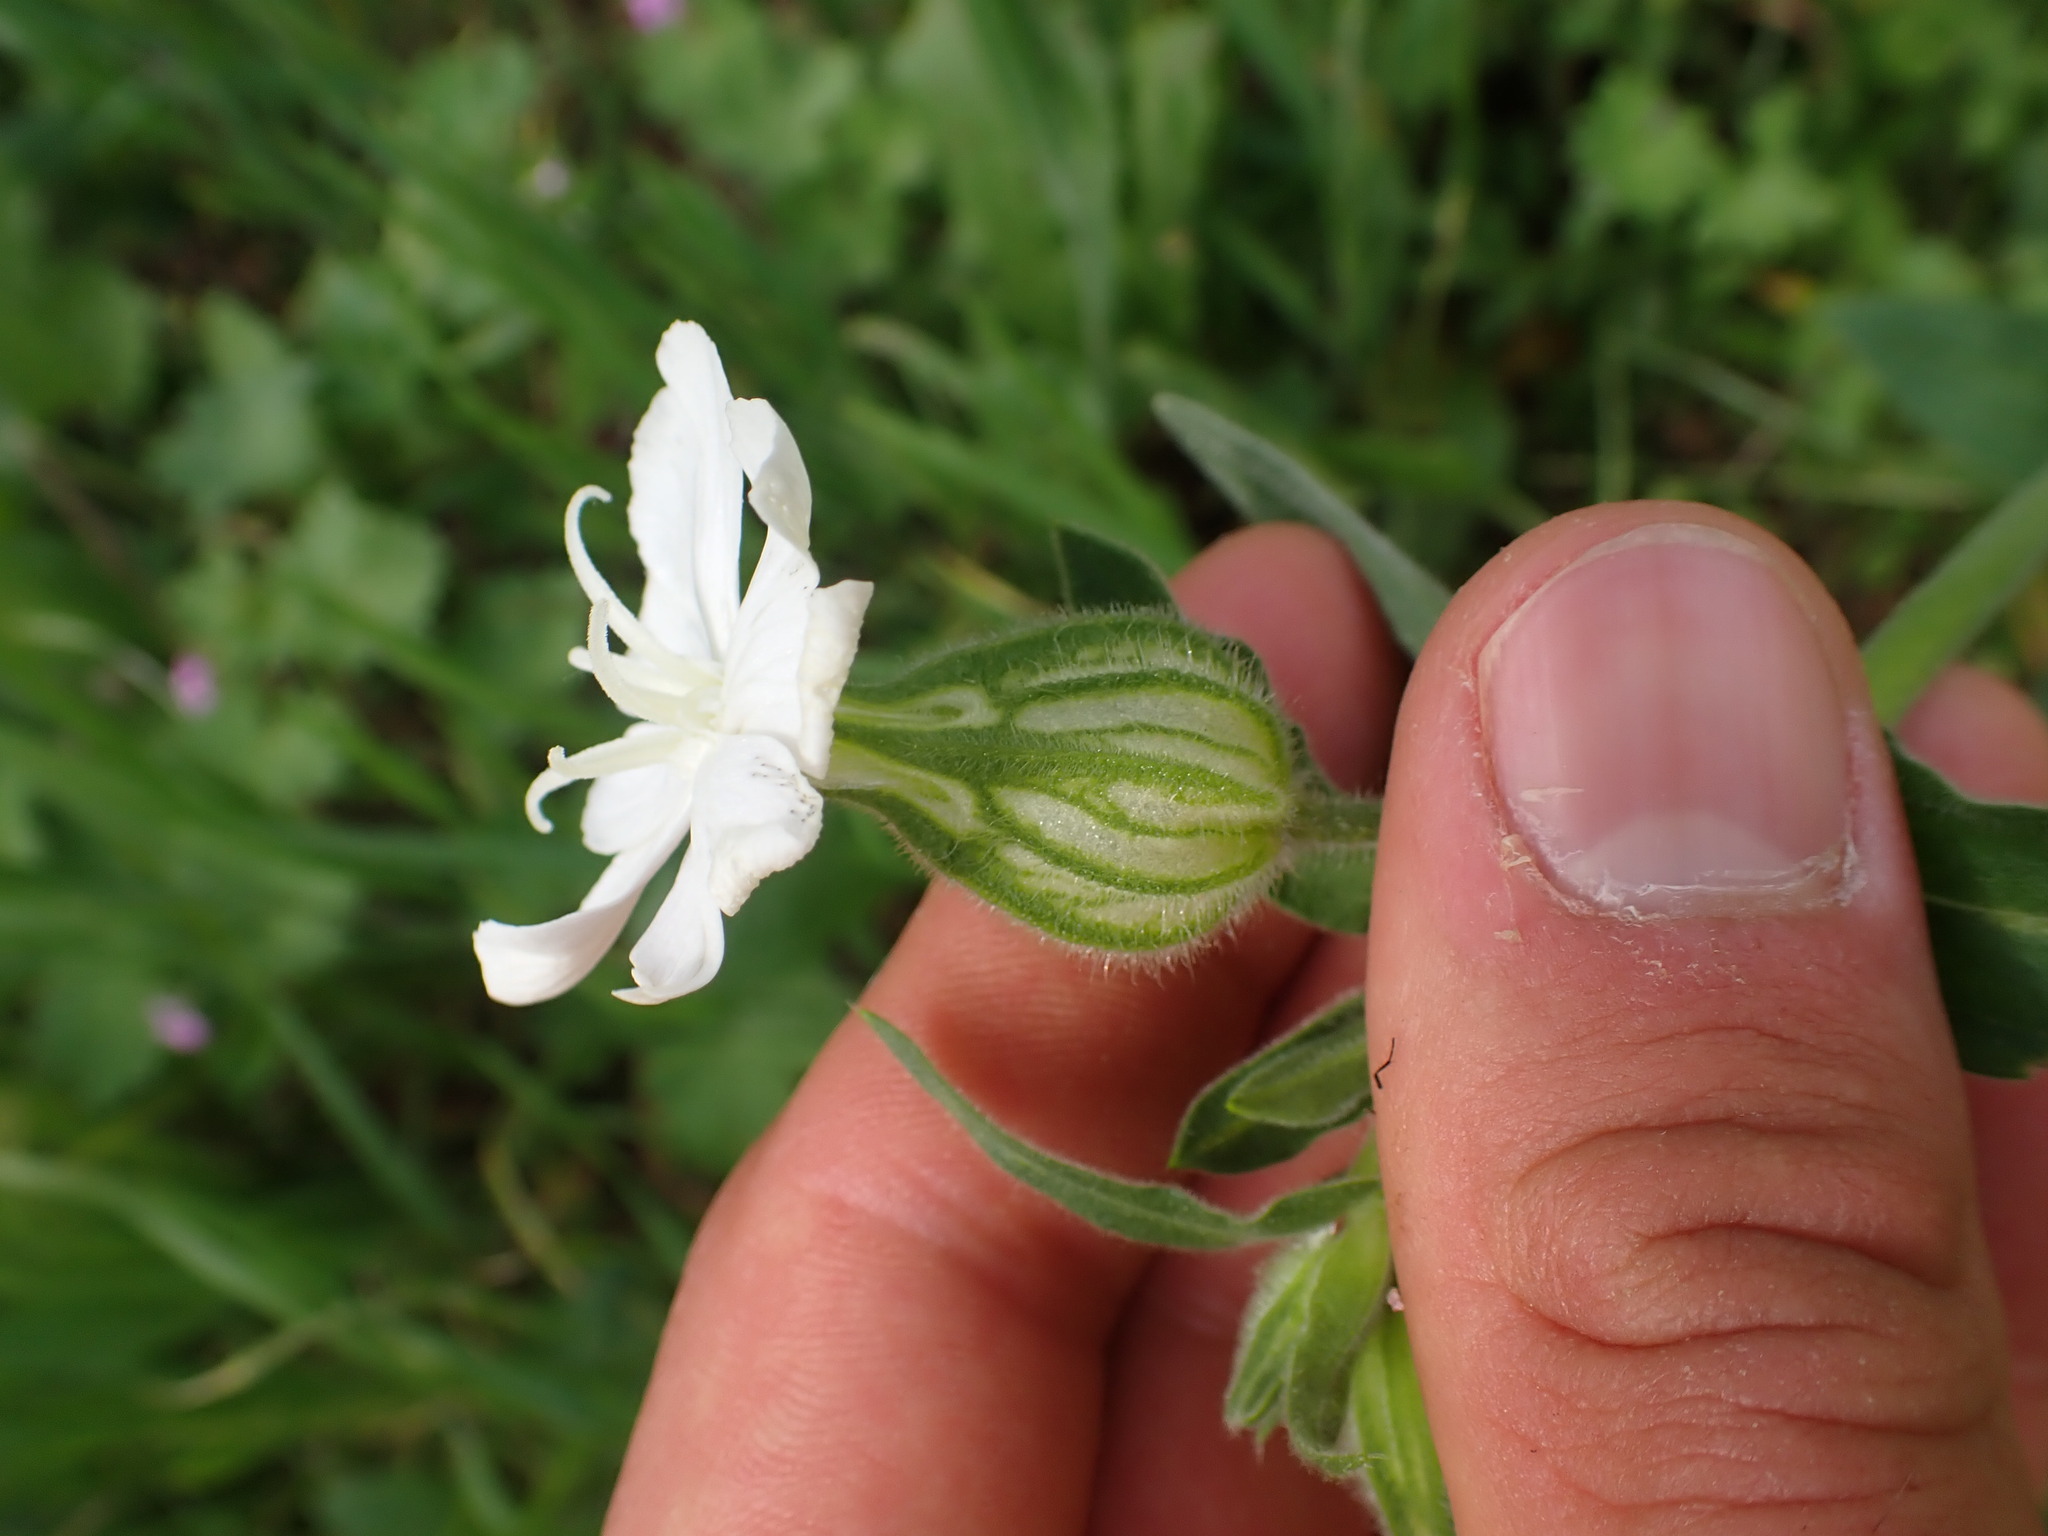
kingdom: Plantae
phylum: Tracheophyta
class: Magnoliopsida
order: Caryophyllales
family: Caryophyllaceae
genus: Silene
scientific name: Silene latifolia
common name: White campion
